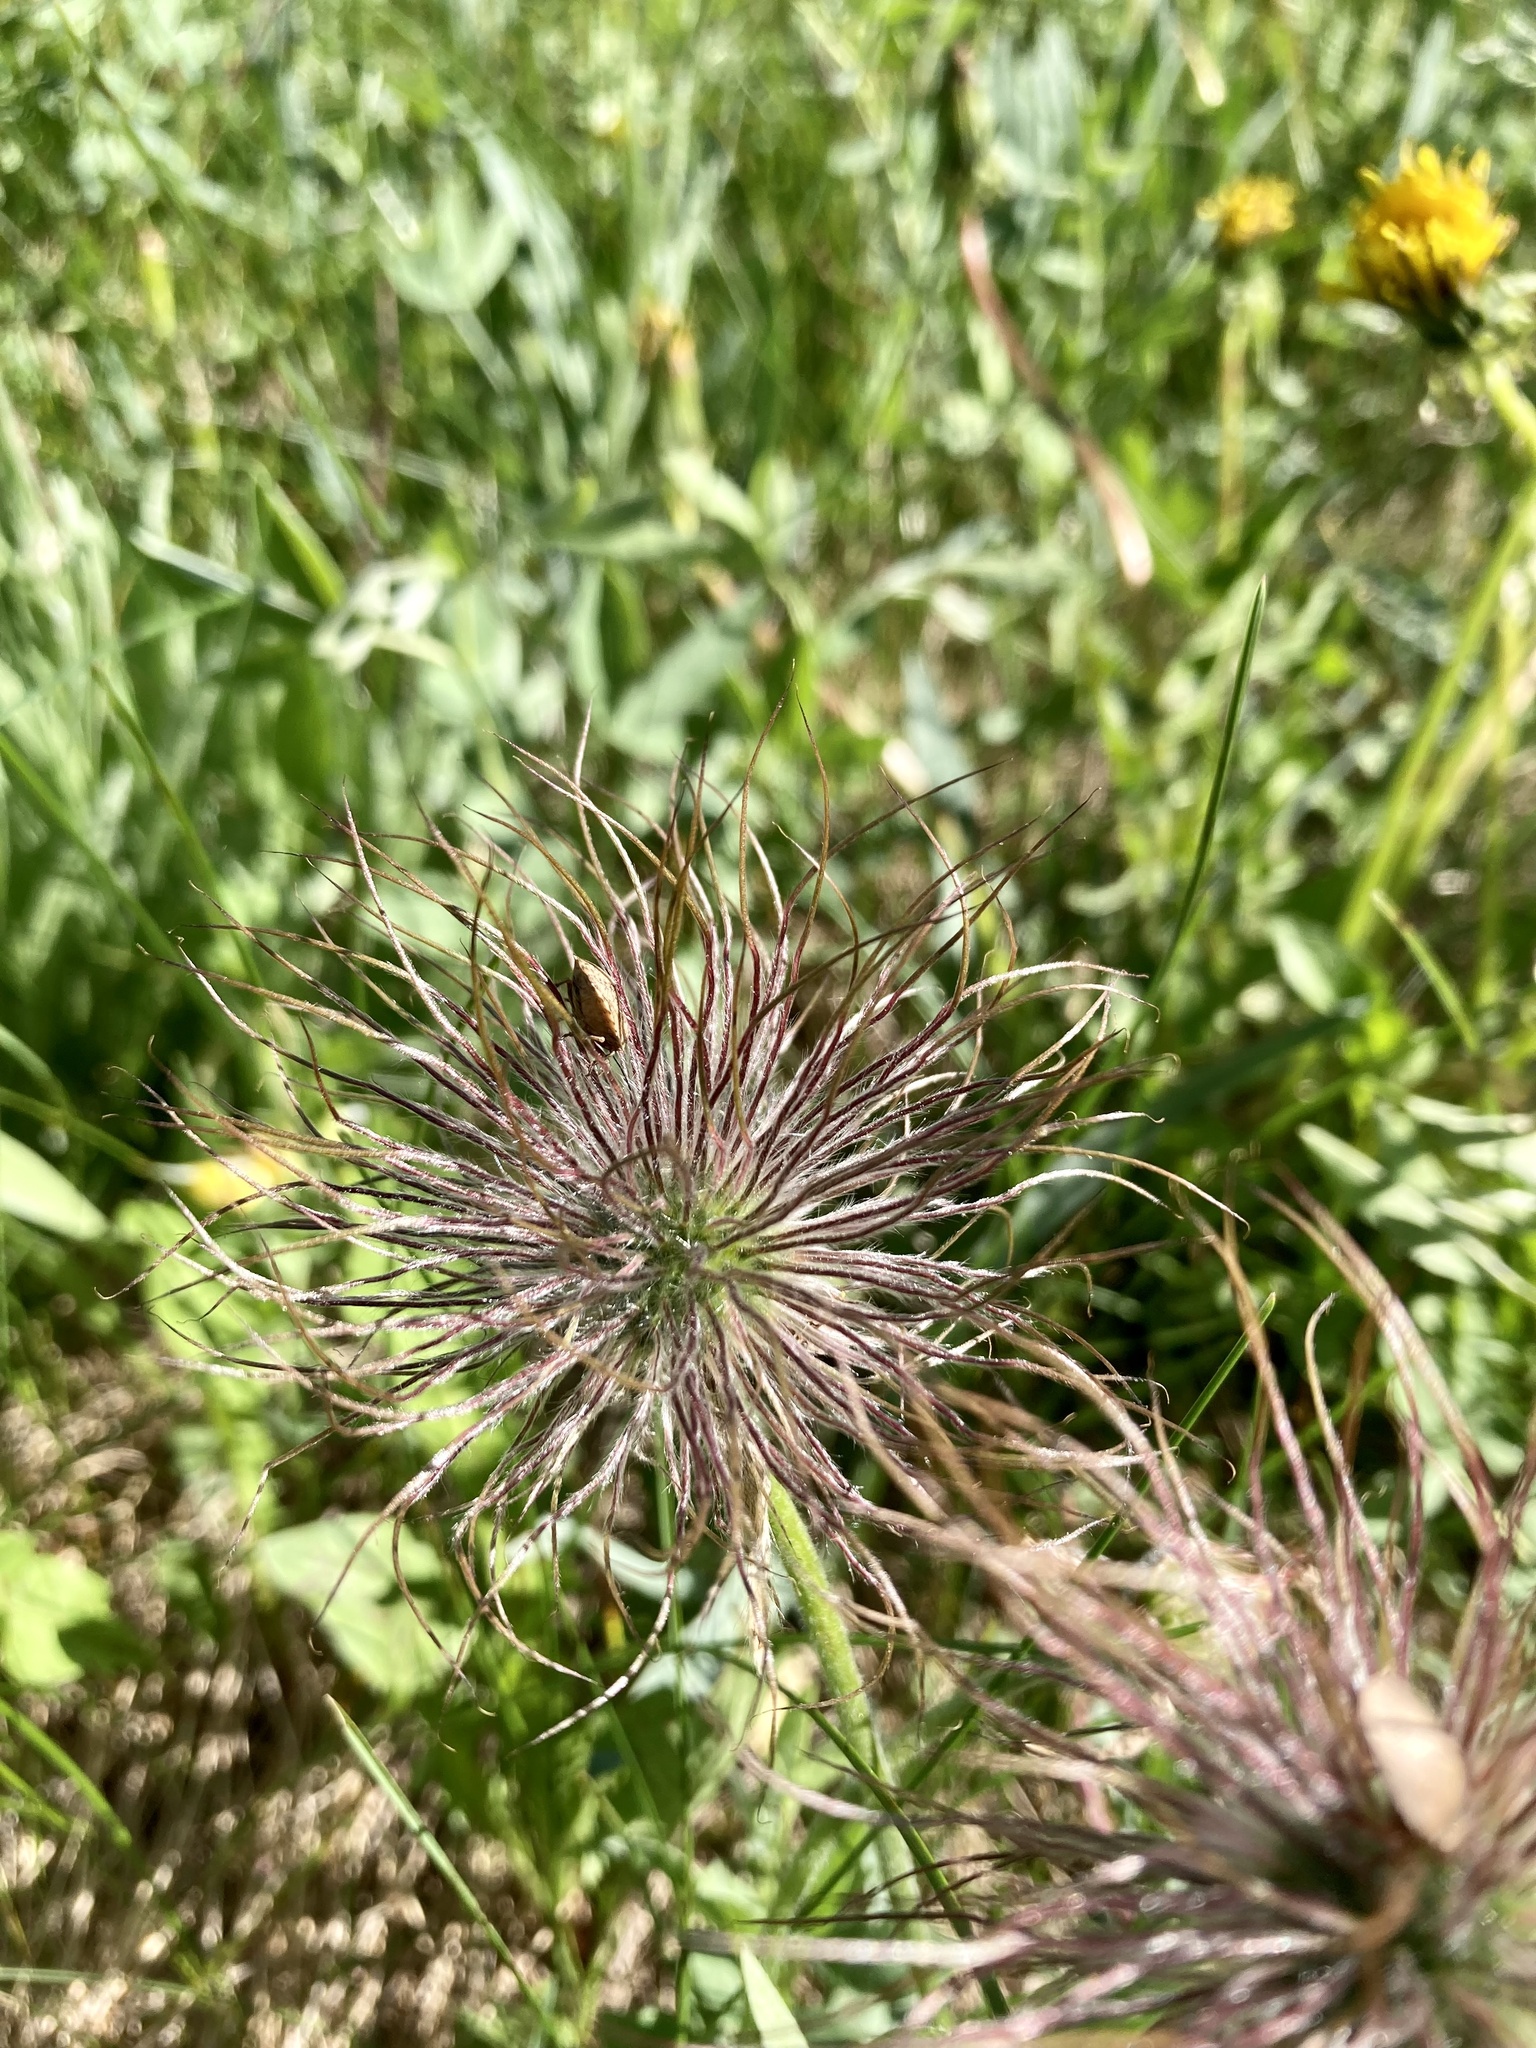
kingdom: Plantae
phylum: Tracheophyta
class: Magnoliopsida
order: Ranunculales
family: Ranunculaceae
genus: Pulsatilla
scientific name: Pulsatilla nuttalliana
